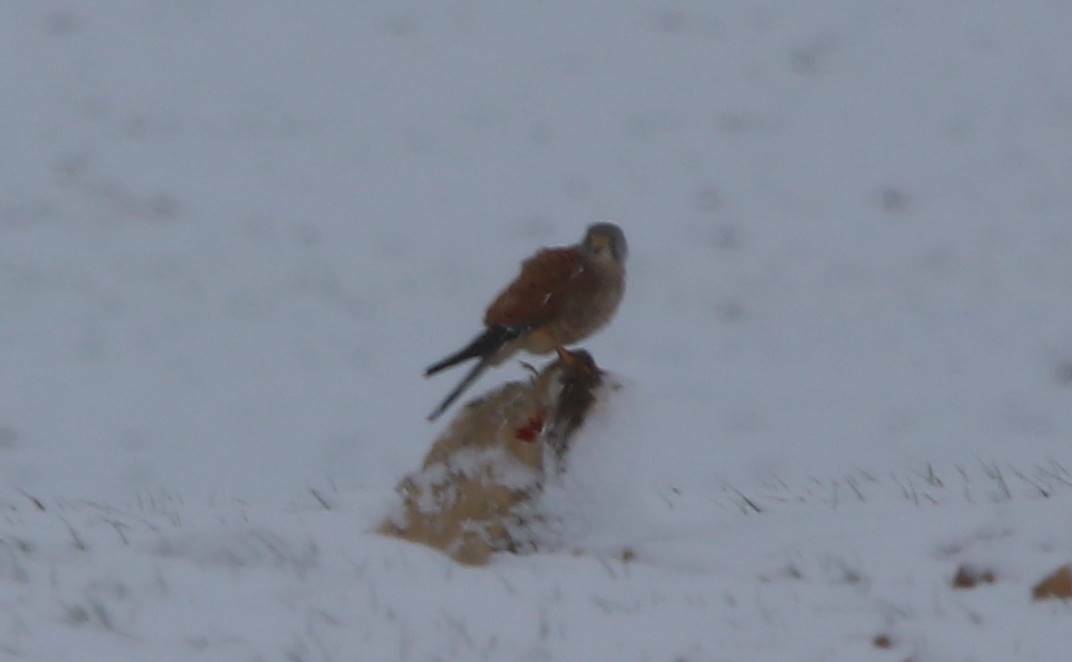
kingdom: Animalia
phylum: Chordata
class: Aves
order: Falconiformes
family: Falconidae
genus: Falco
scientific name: Falco tinnunculus
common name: Common kestrel
